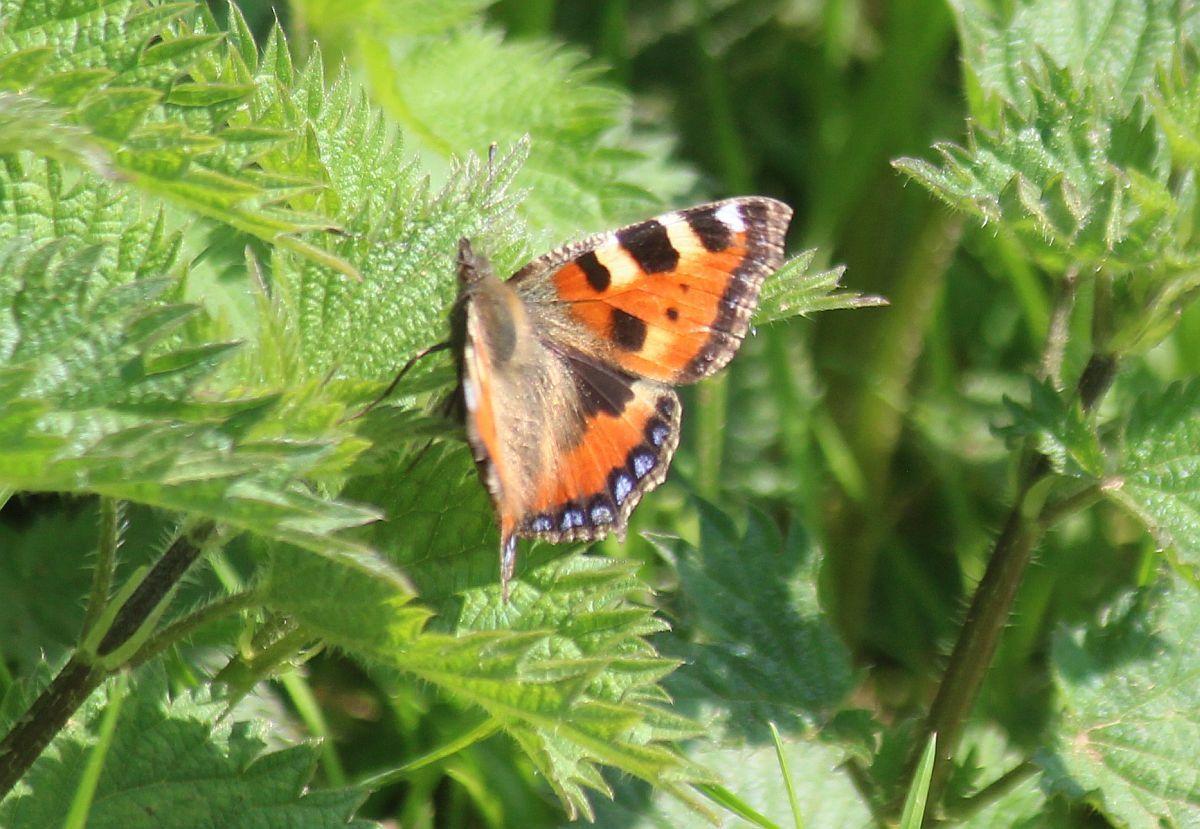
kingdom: Animalia
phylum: Arthropoda
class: Insecta
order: Lepidoptera
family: Nymphalidae
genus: Aglais
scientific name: Aglais urticae
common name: Small tortoiseshell
